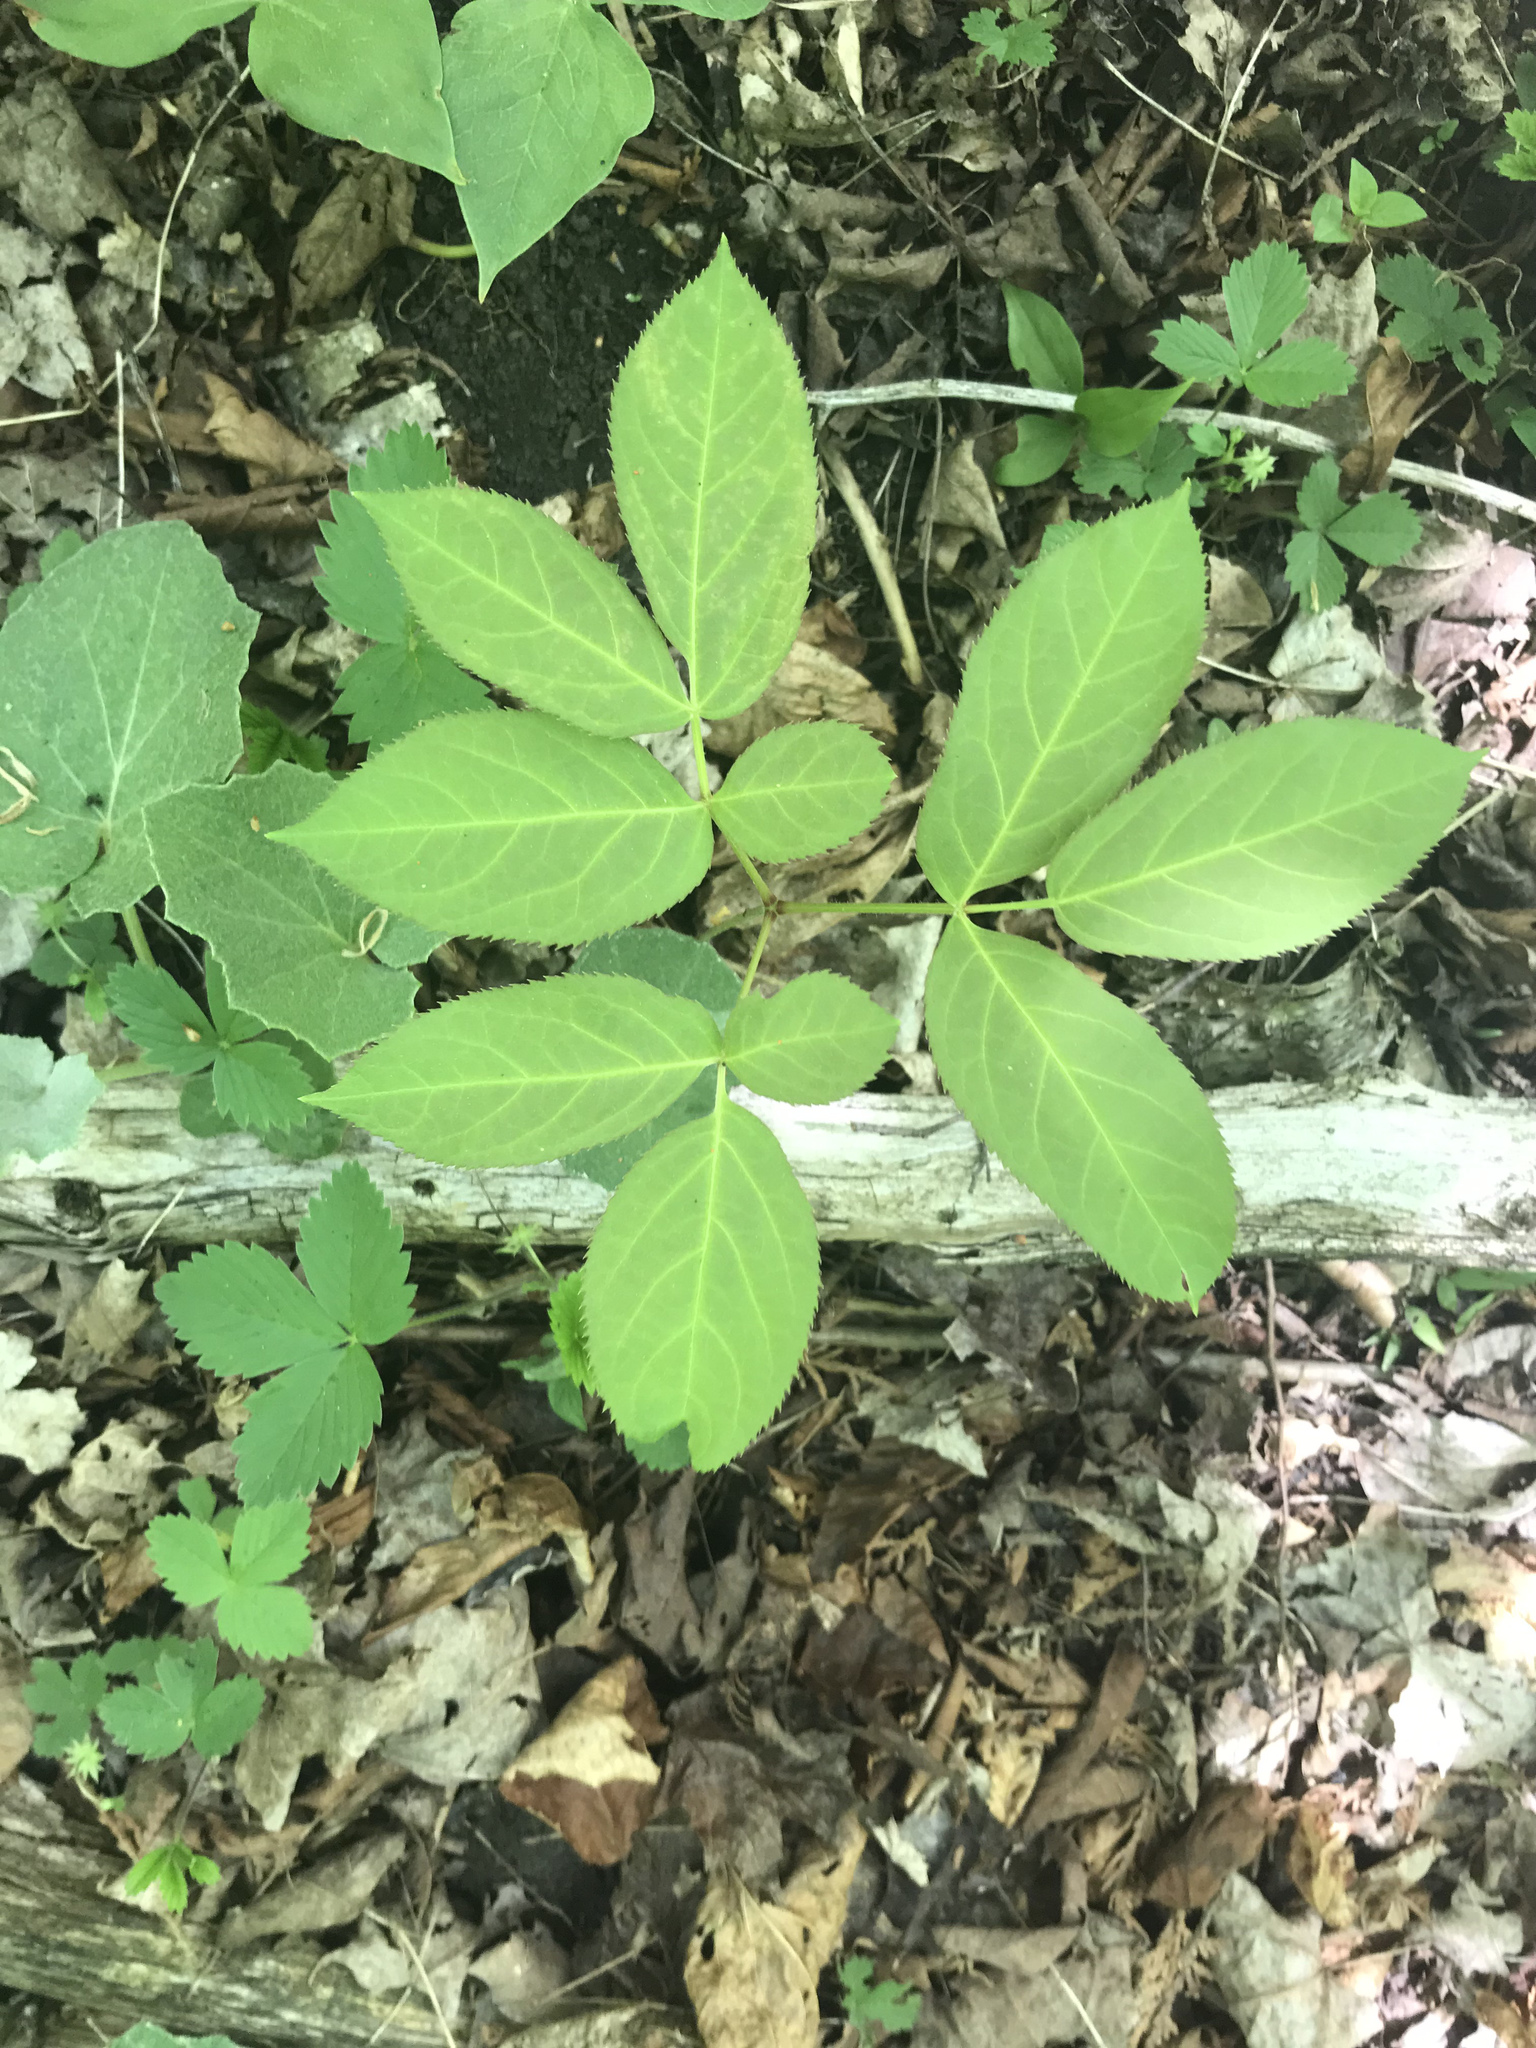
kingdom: Plantae
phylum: Tracheophyta
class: Magnoliopsida
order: Apiales
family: Araliaceae
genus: Aralia
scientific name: Aralia nudicaulis
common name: Wild sarsaparilla
